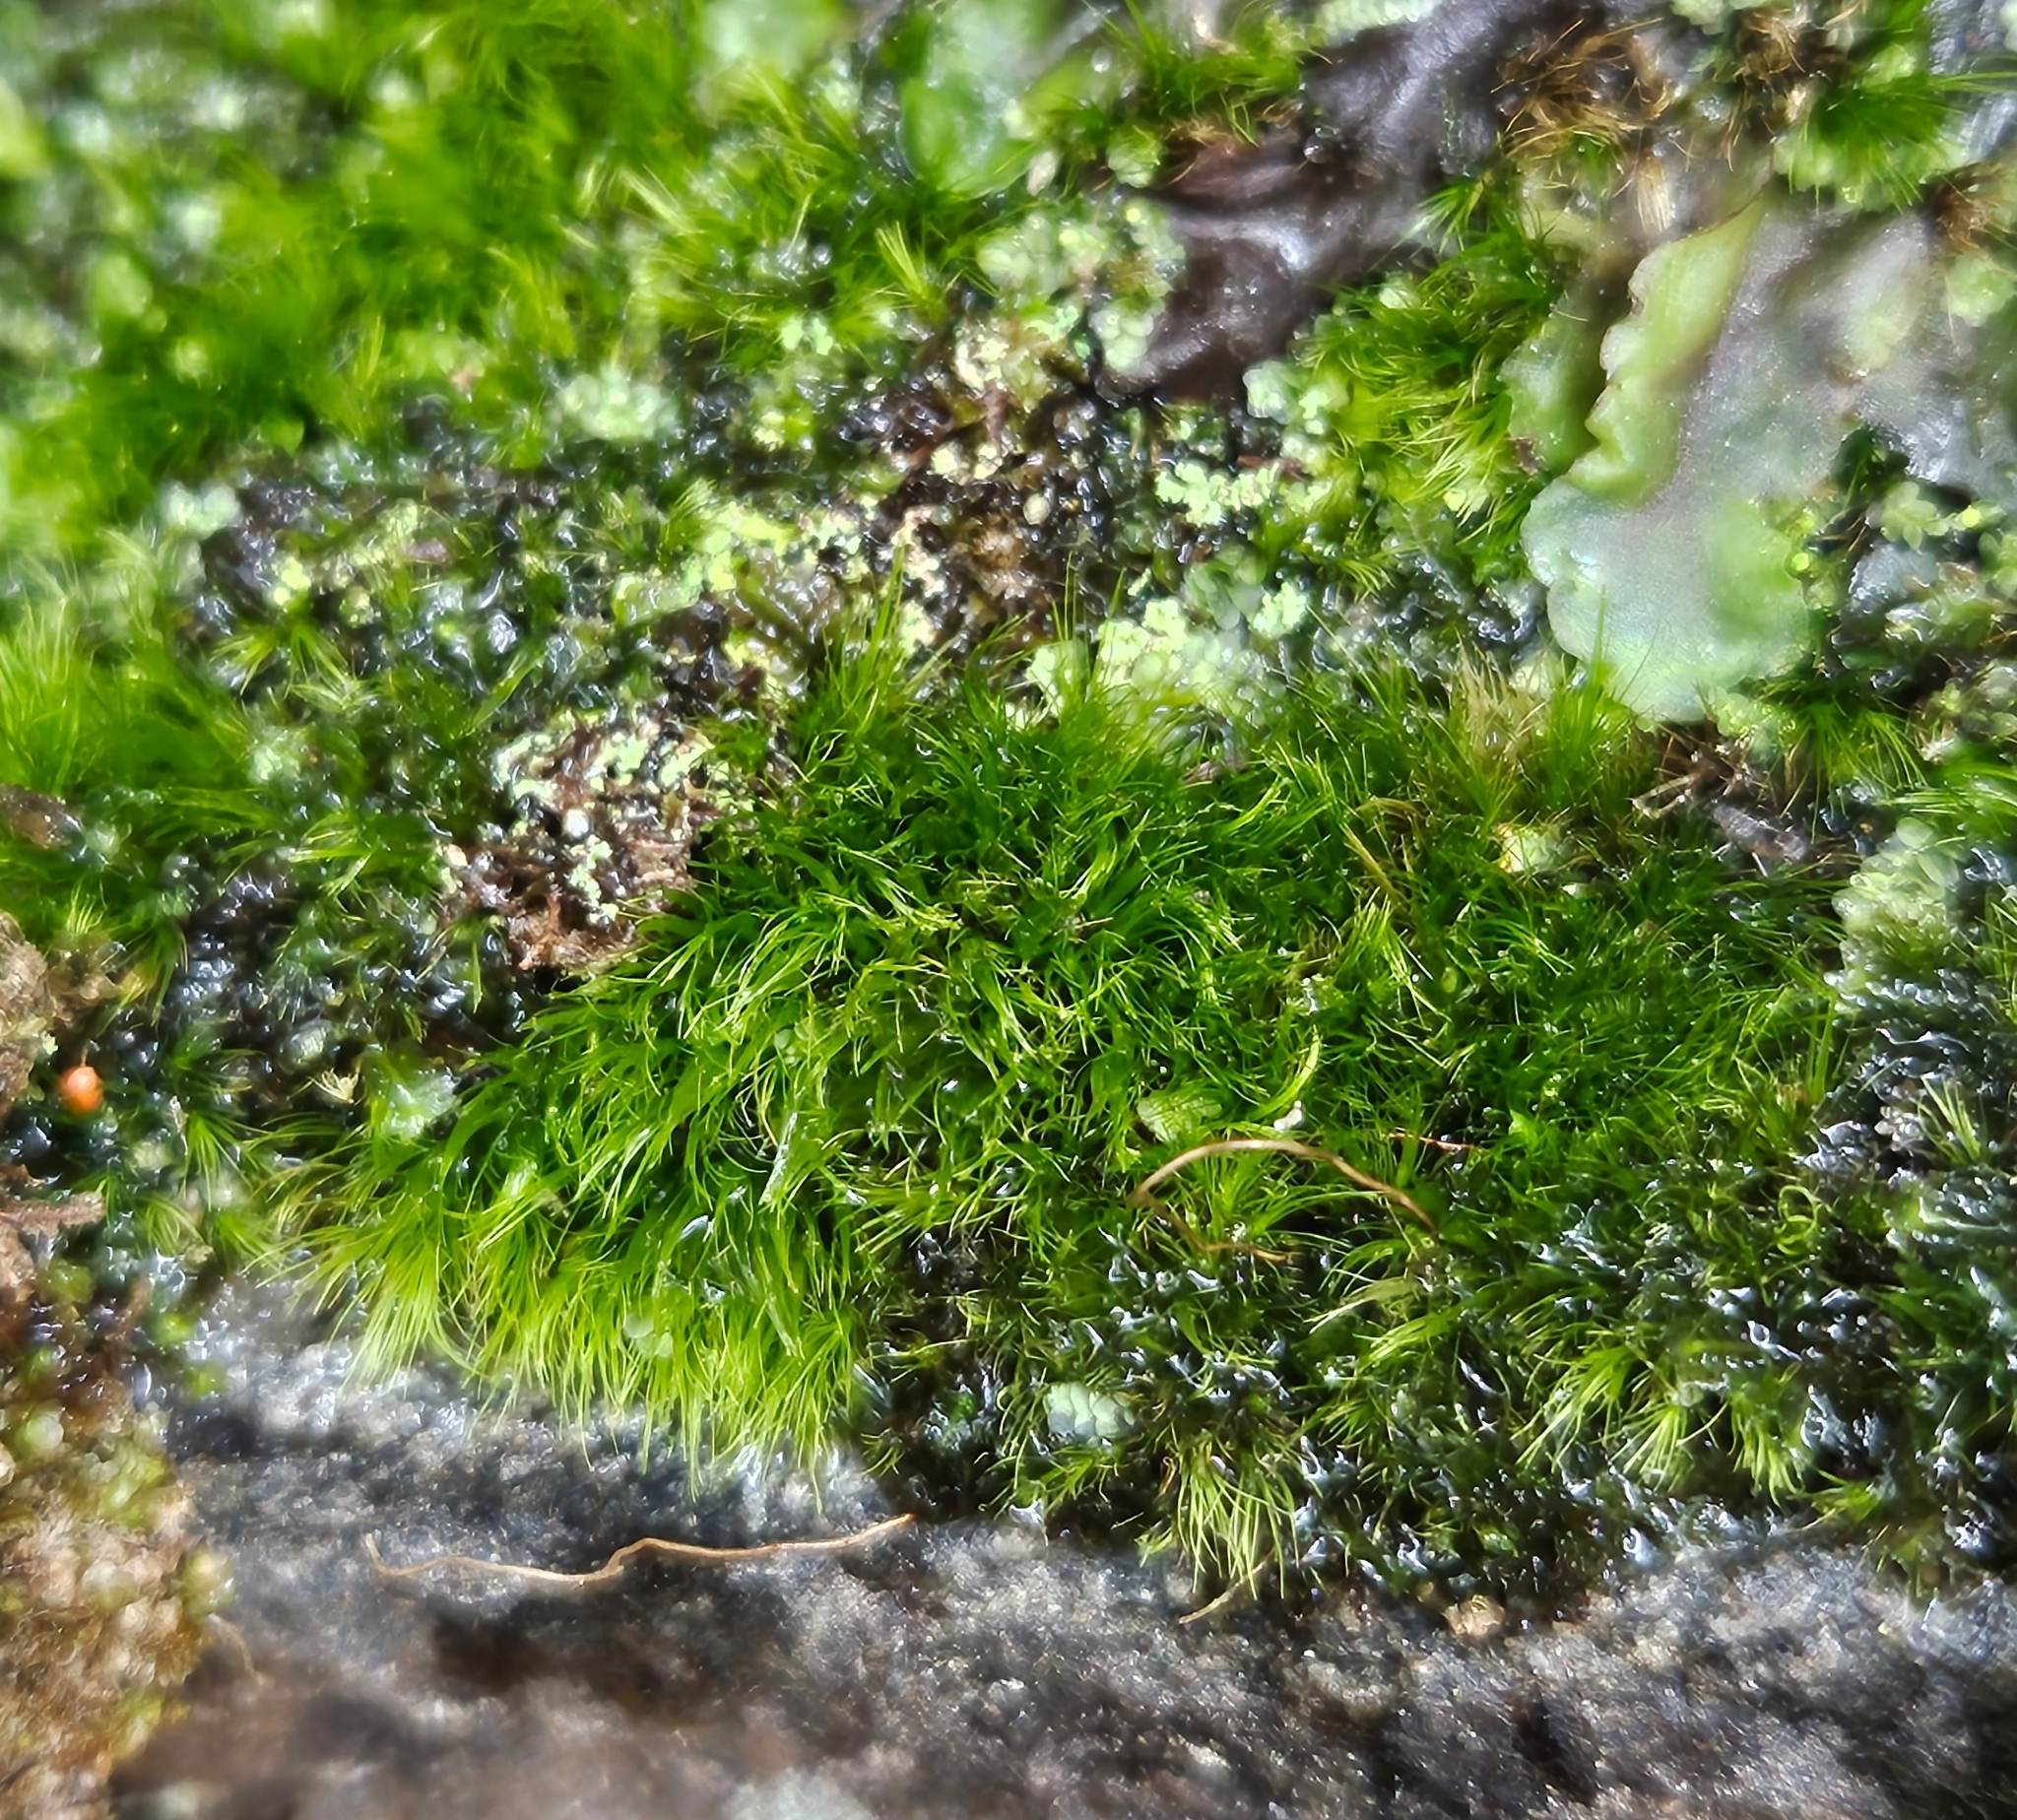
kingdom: Plantae
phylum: Bryophyta
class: Bryopsida
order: Dicranales
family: Dicranellaceae
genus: Dicranella
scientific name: Dicranella heteromalla
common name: Silky forklet moss
